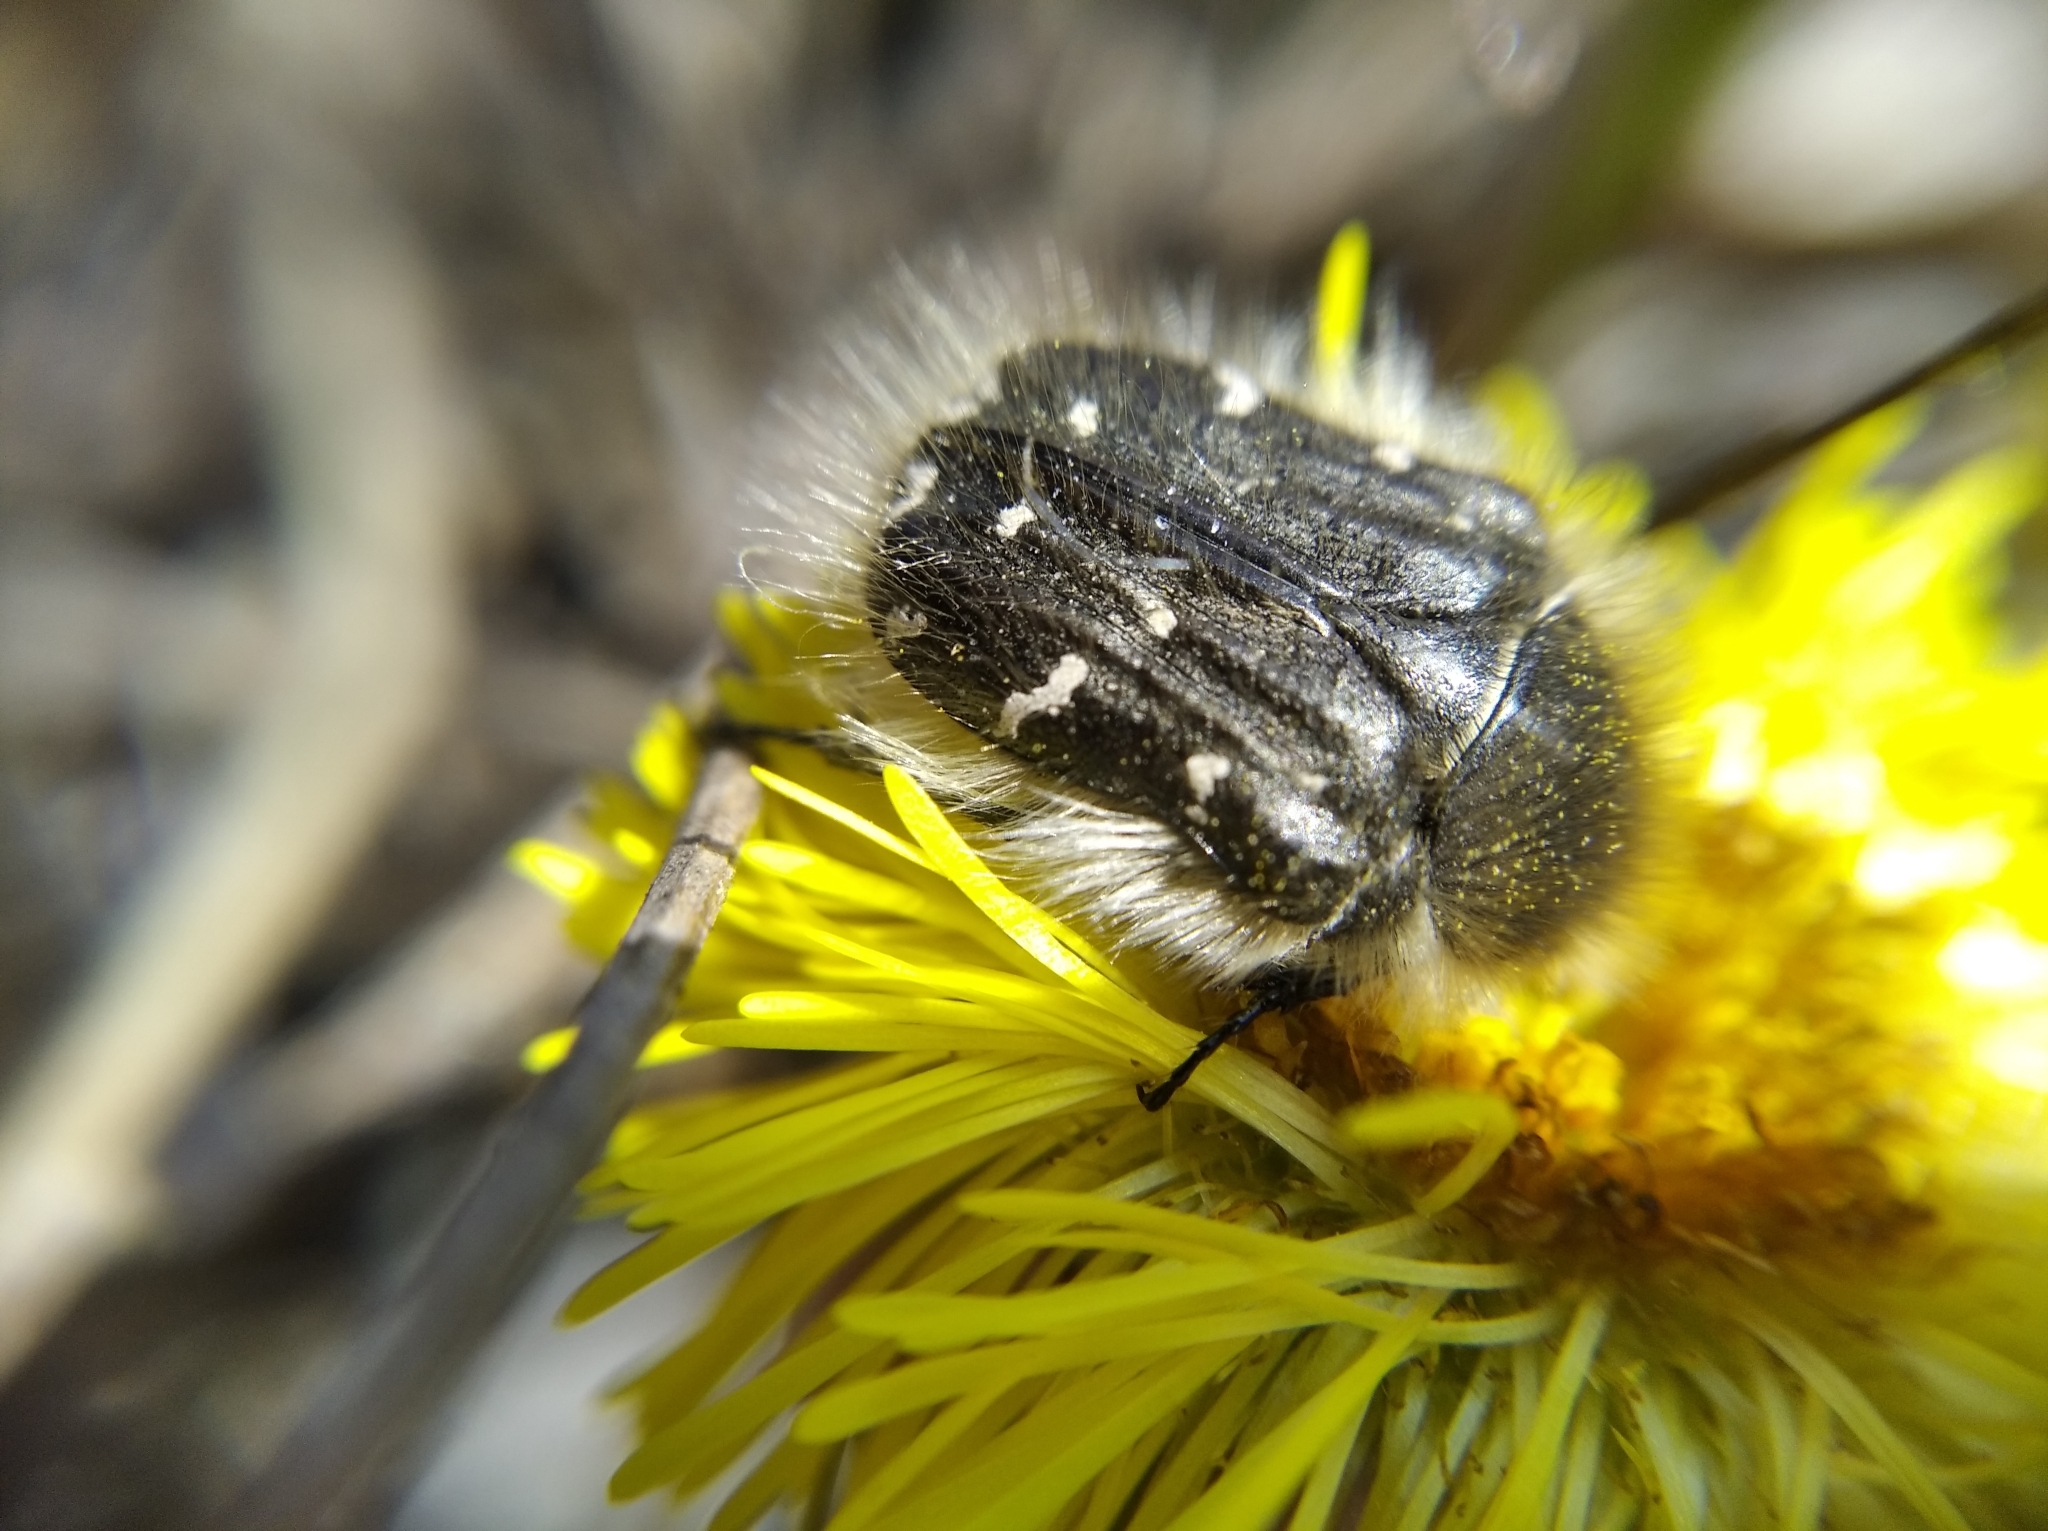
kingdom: Animalia
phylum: Arthropoda
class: Insecta
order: Coleoptera
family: Scarabaeidae
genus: Tropinota
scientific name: Tropinota hirta
